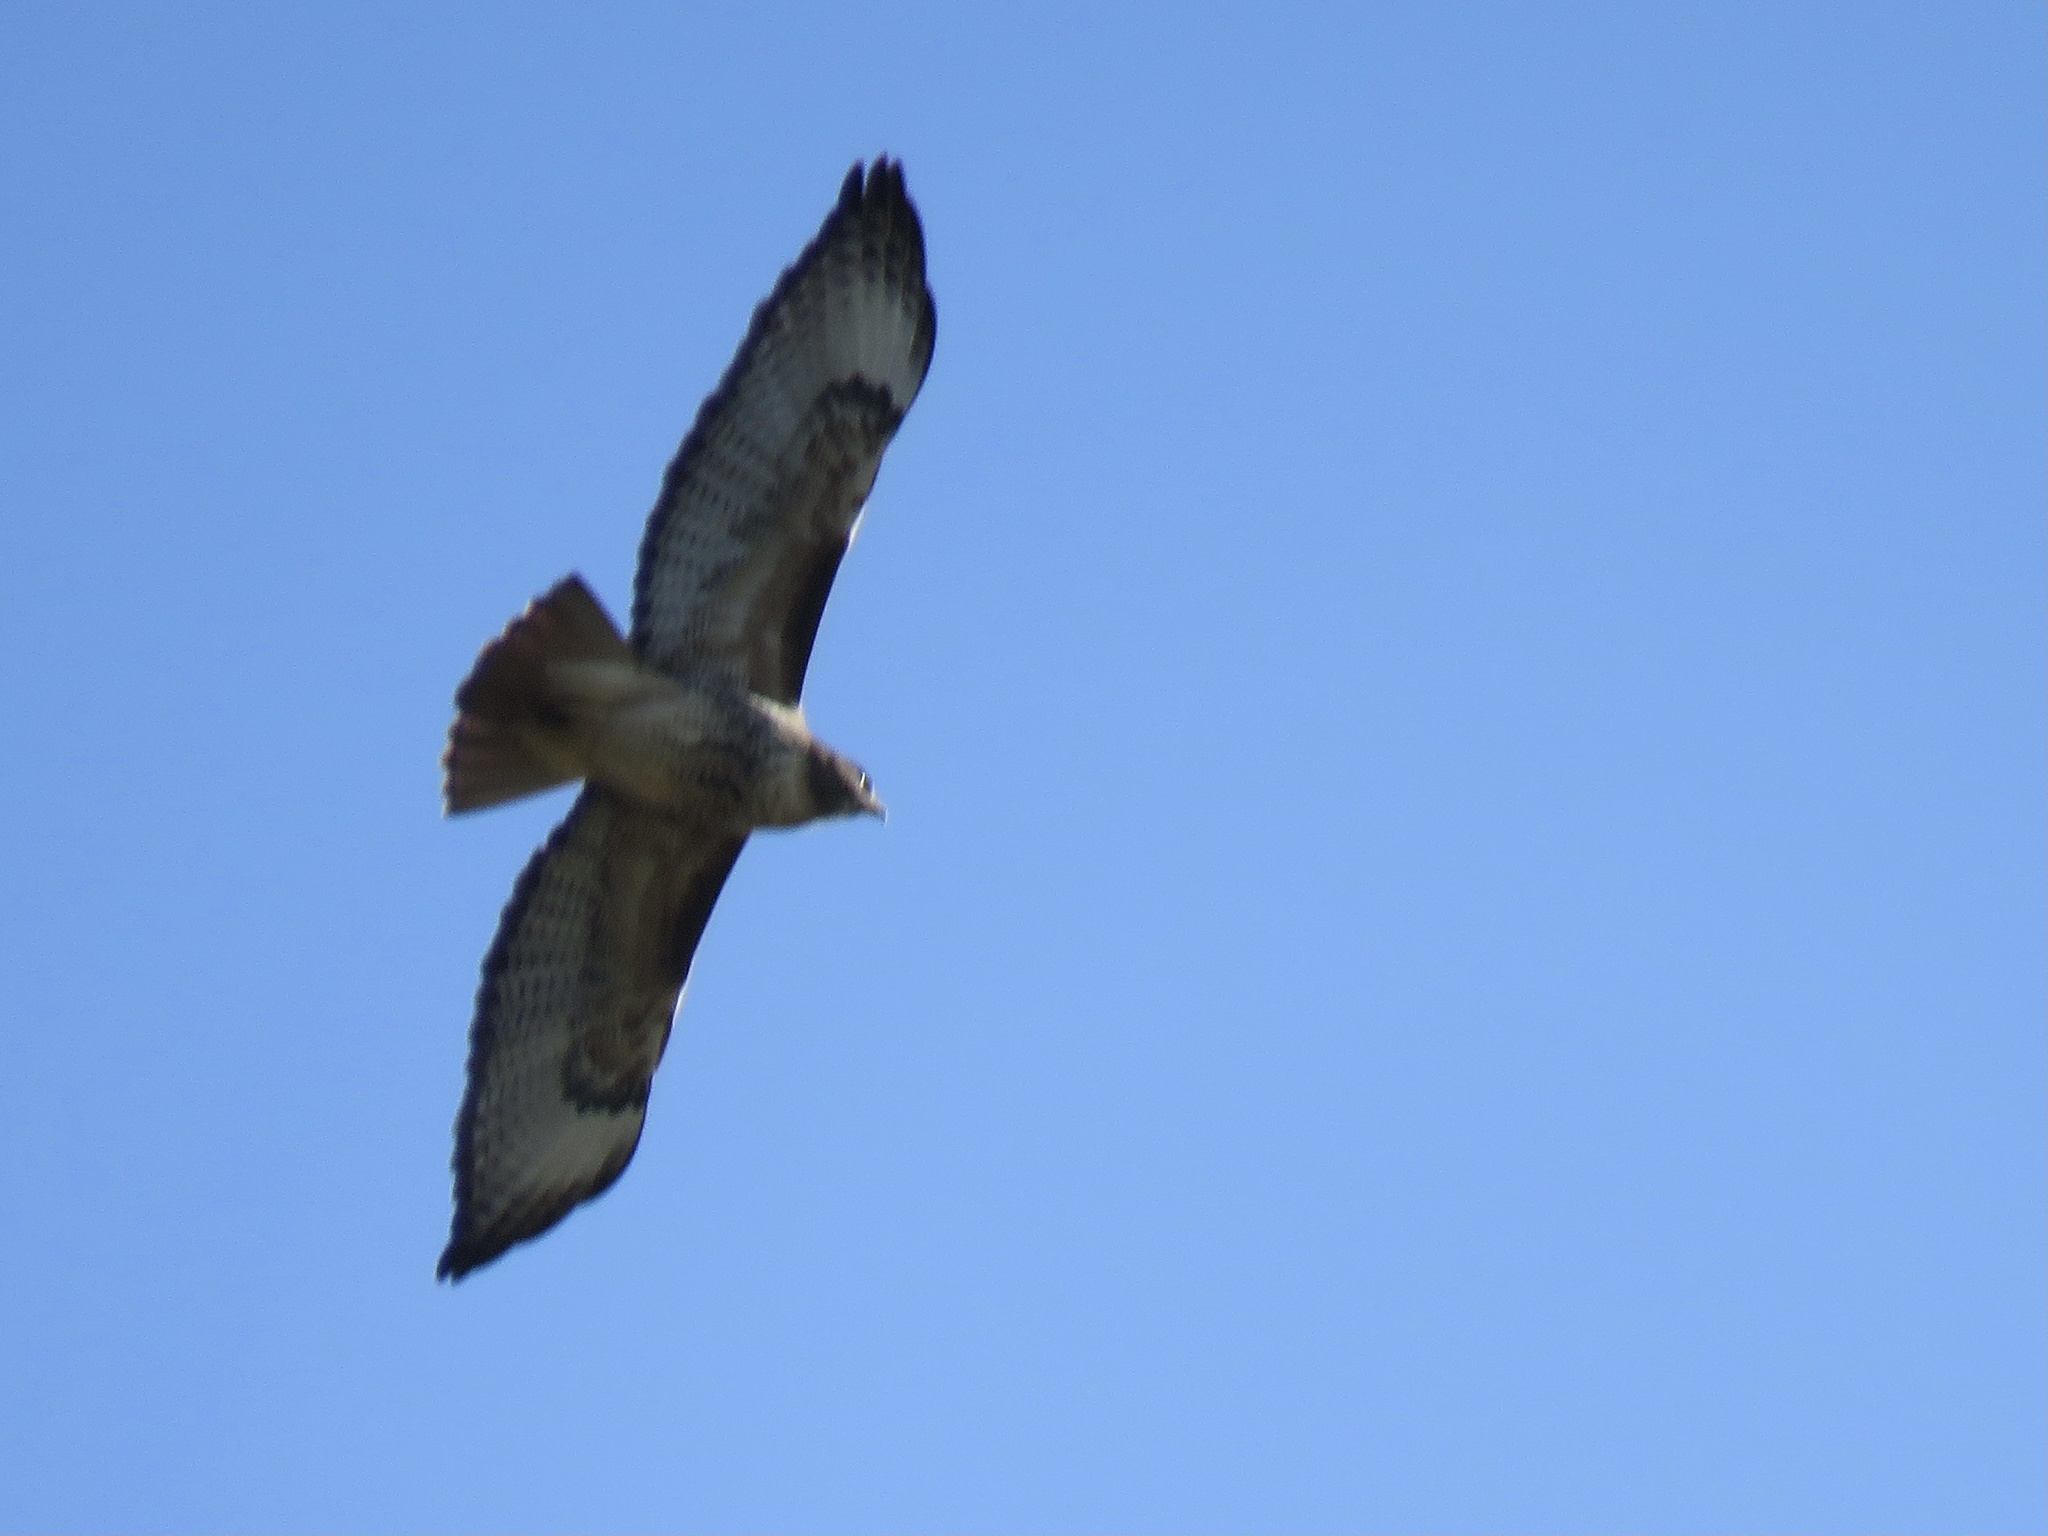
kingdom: Animalia
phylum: Chordata
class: Aves
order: Accipitriformes
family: Accipitridae
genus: Buteo
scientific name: Buteo jamaicensis
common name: Red-tailed hawk
